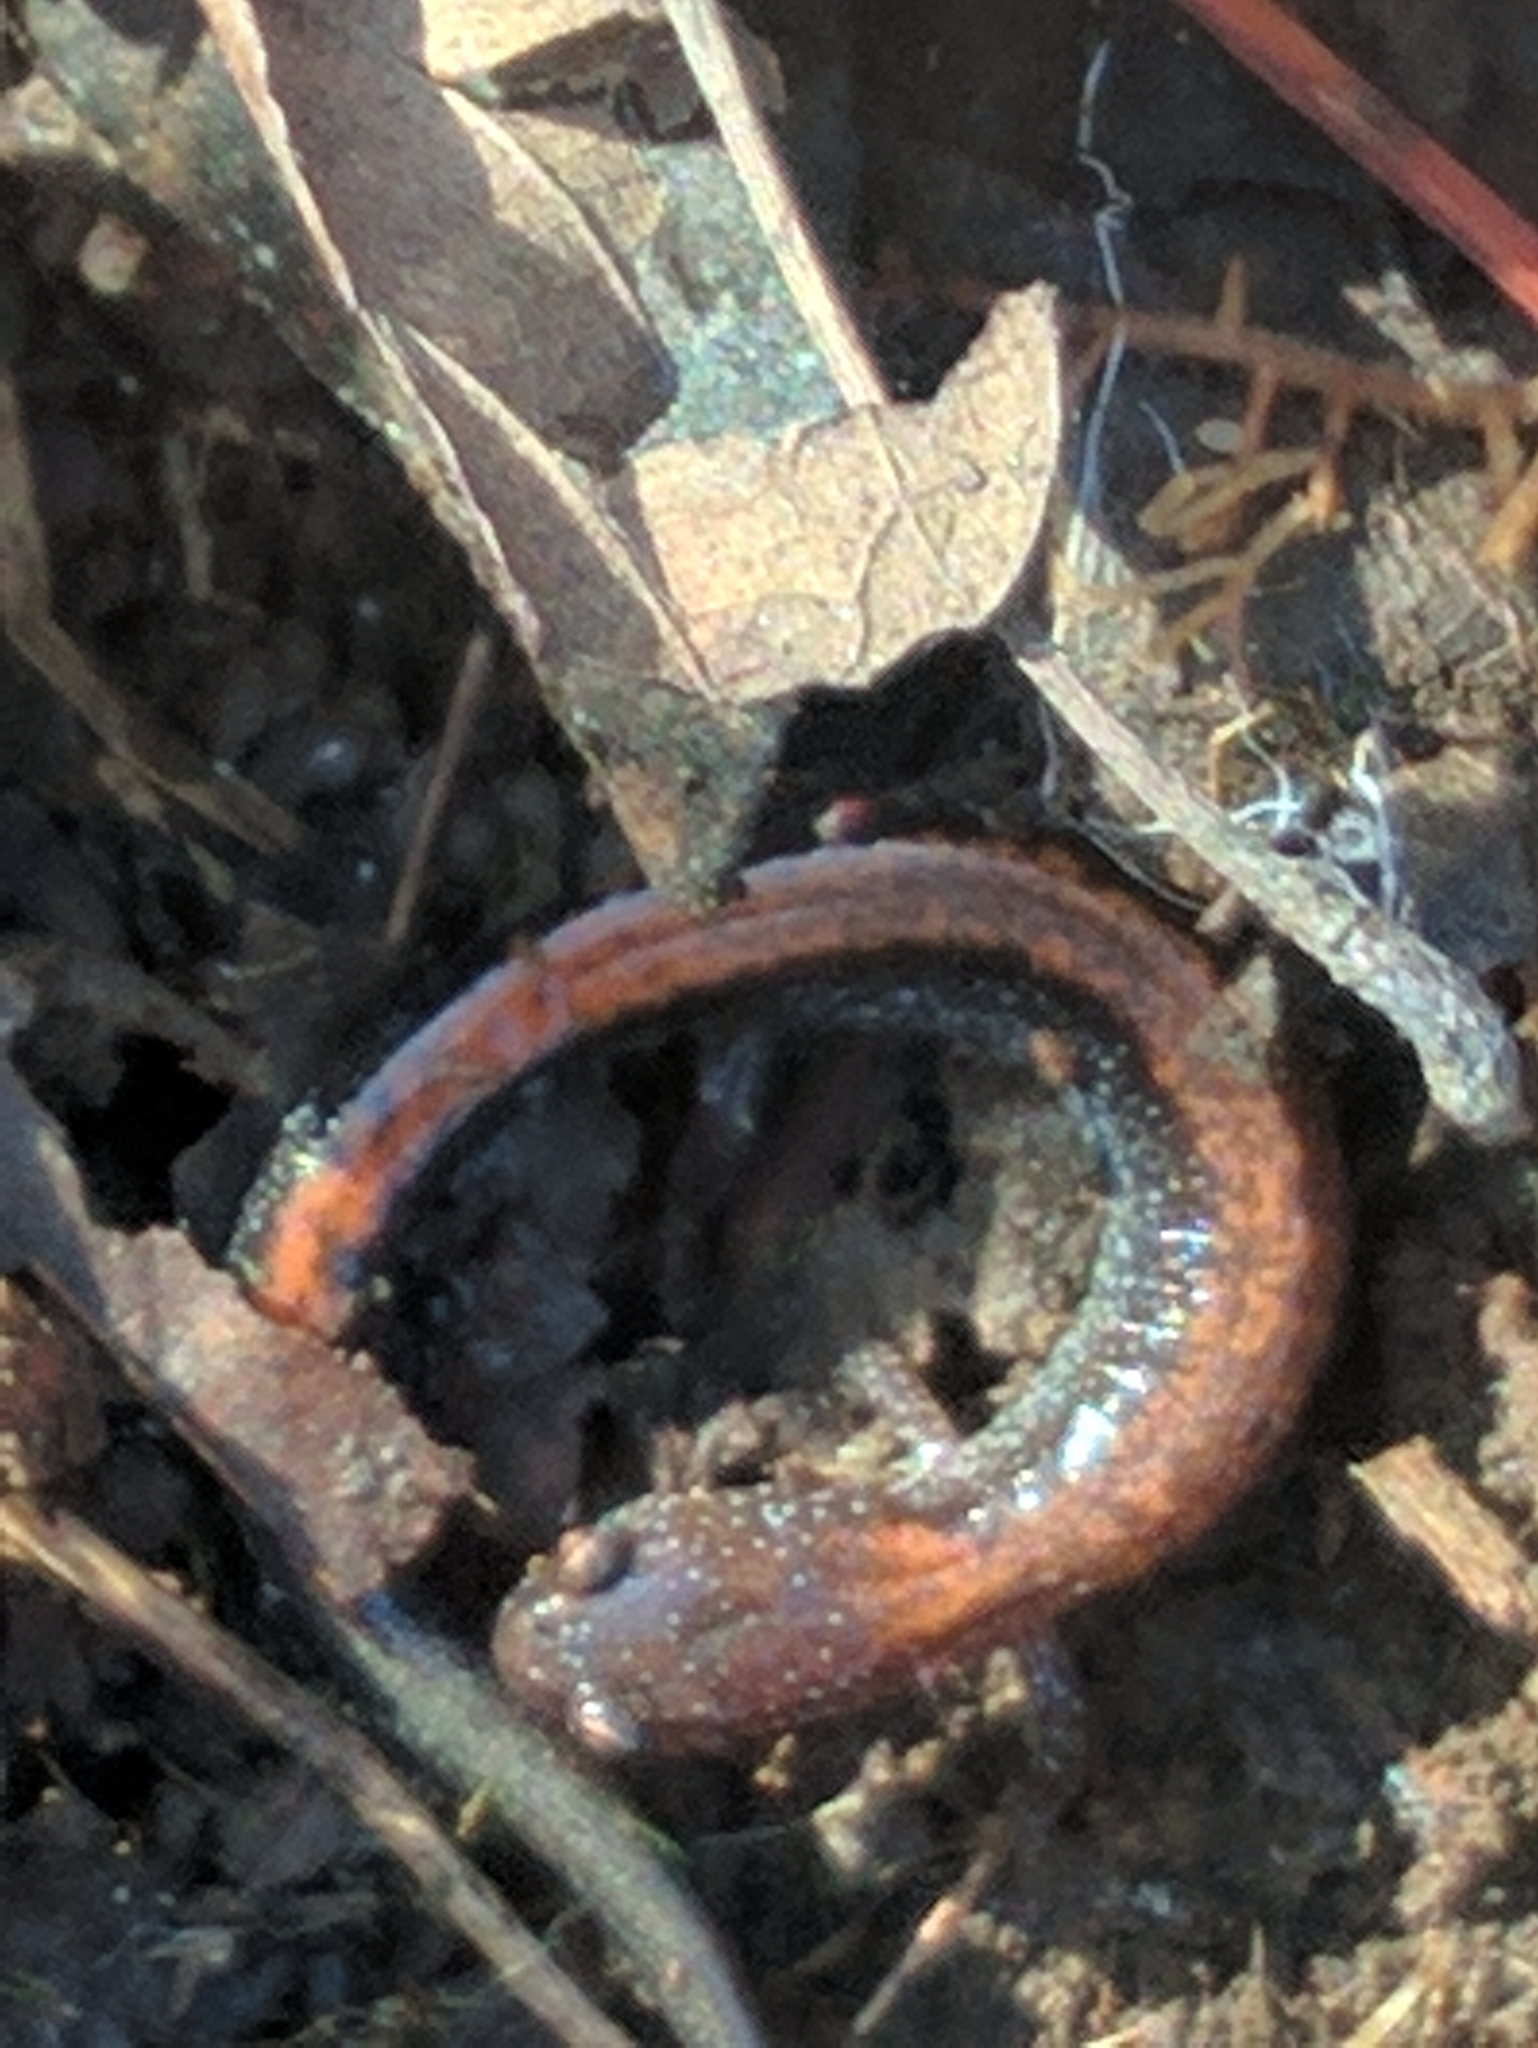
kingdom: Animalia
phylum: Chordata
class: Amphibia
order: Caudata
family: Plethodontidae
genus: Plethodon
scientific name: Plethodon cinereus
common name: Redback salamander
